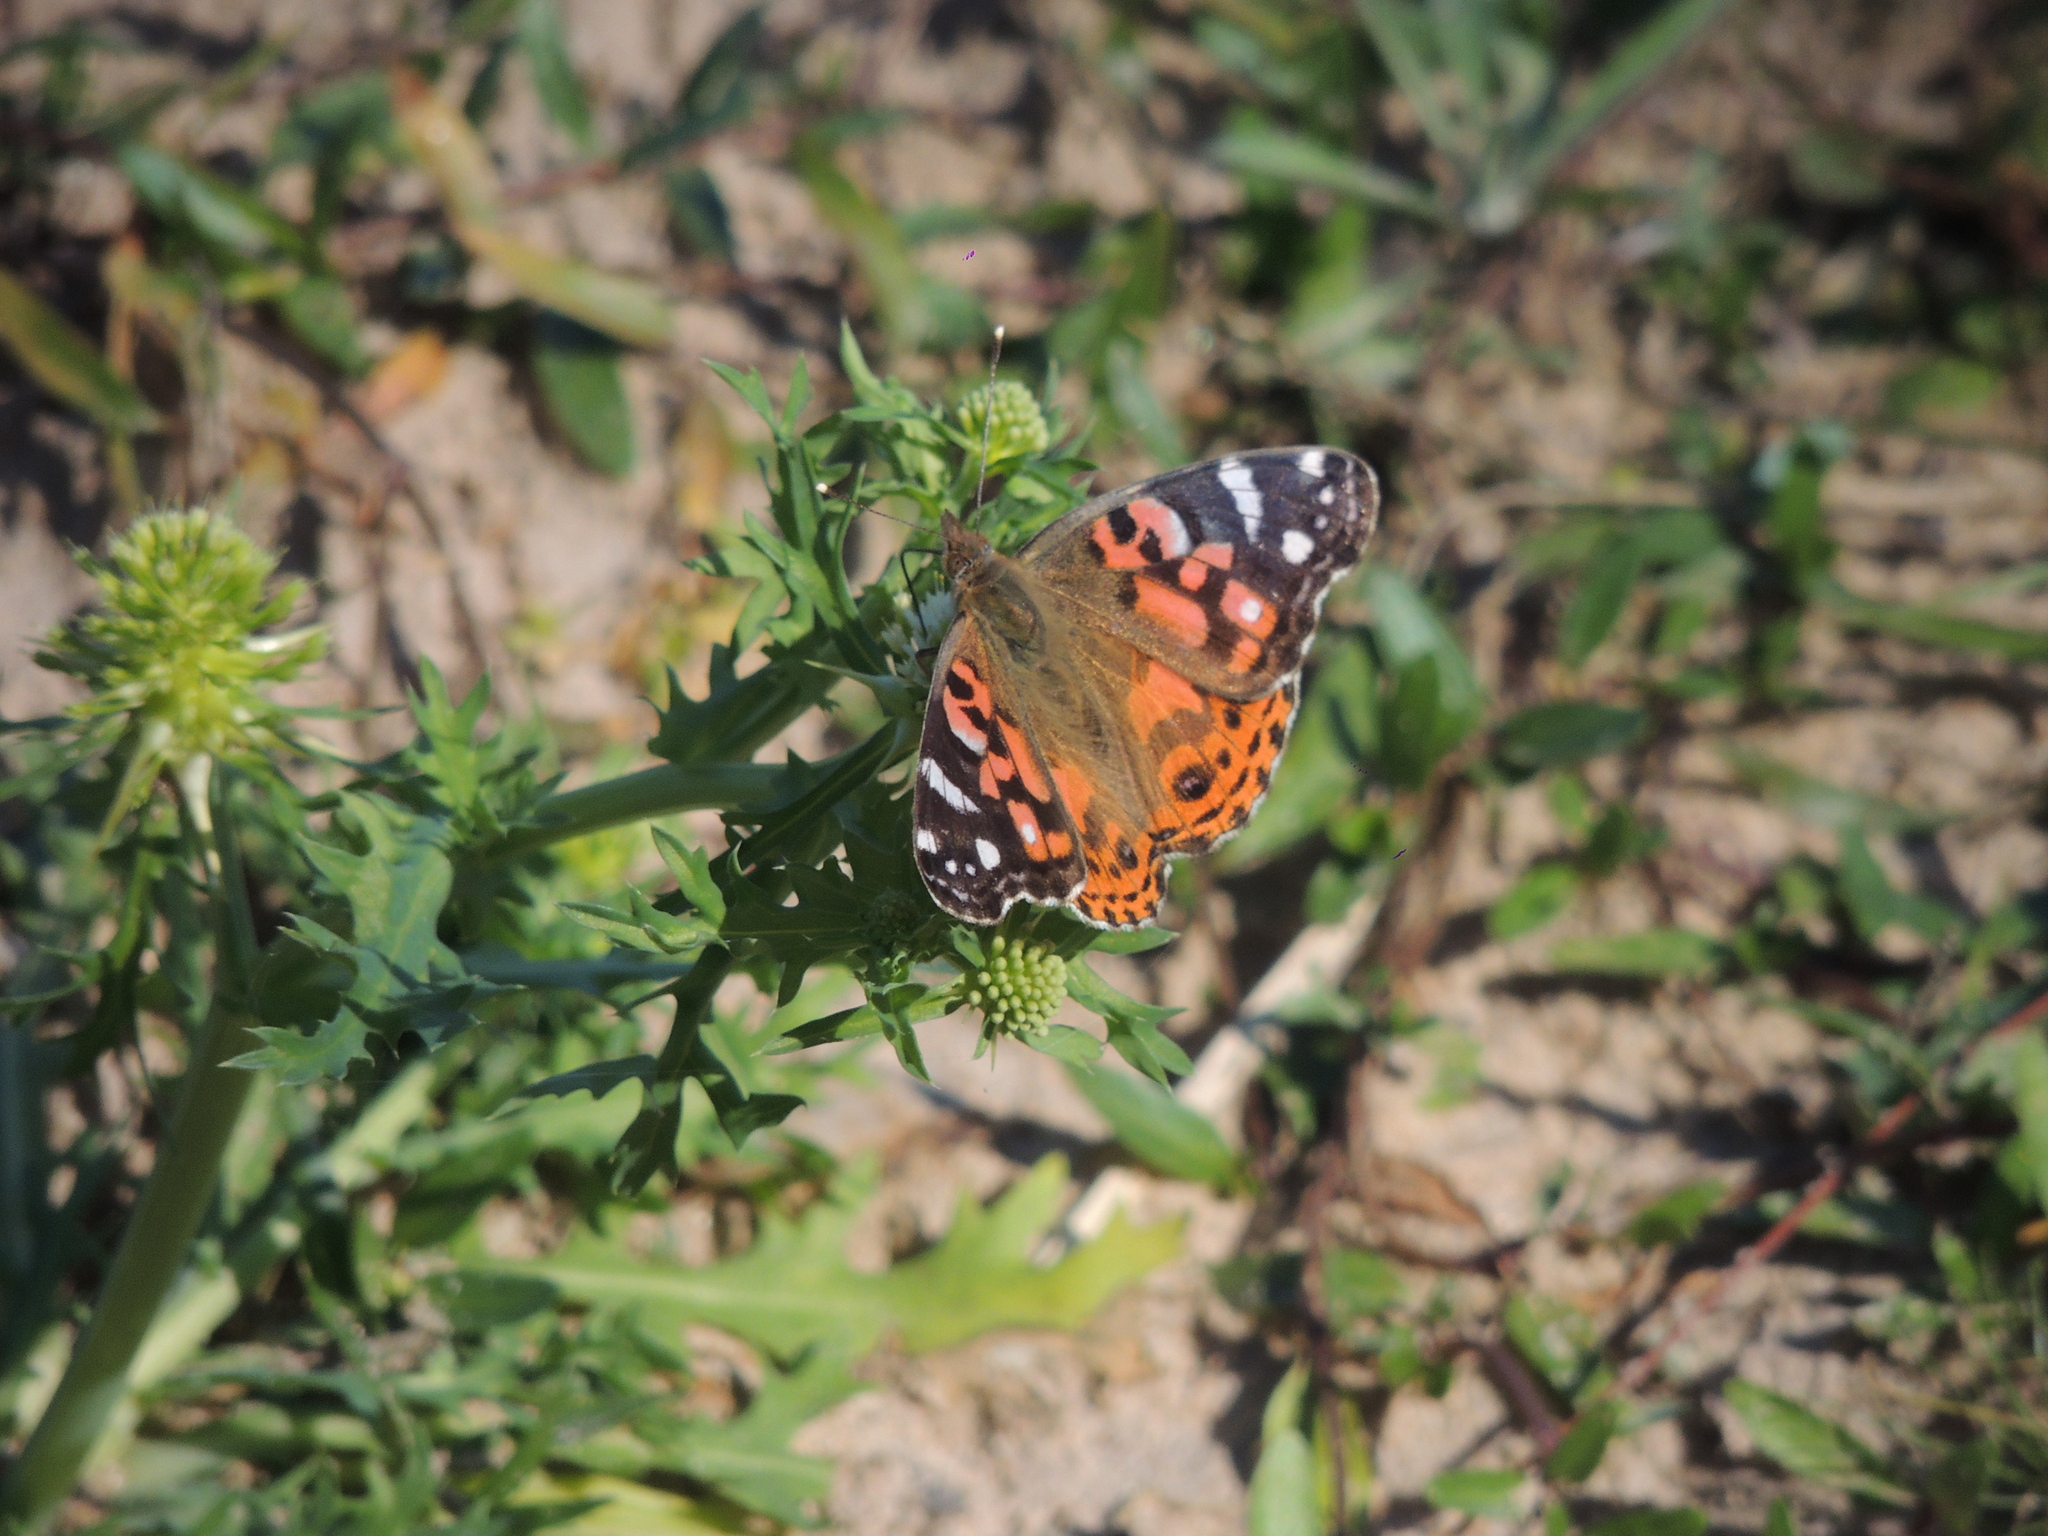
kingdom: Animalia
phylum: Arthropoda
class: Insecta
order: Lepidoptera
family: Nymphalidae
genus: Vanessa
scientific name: Vanessa braziliensis
